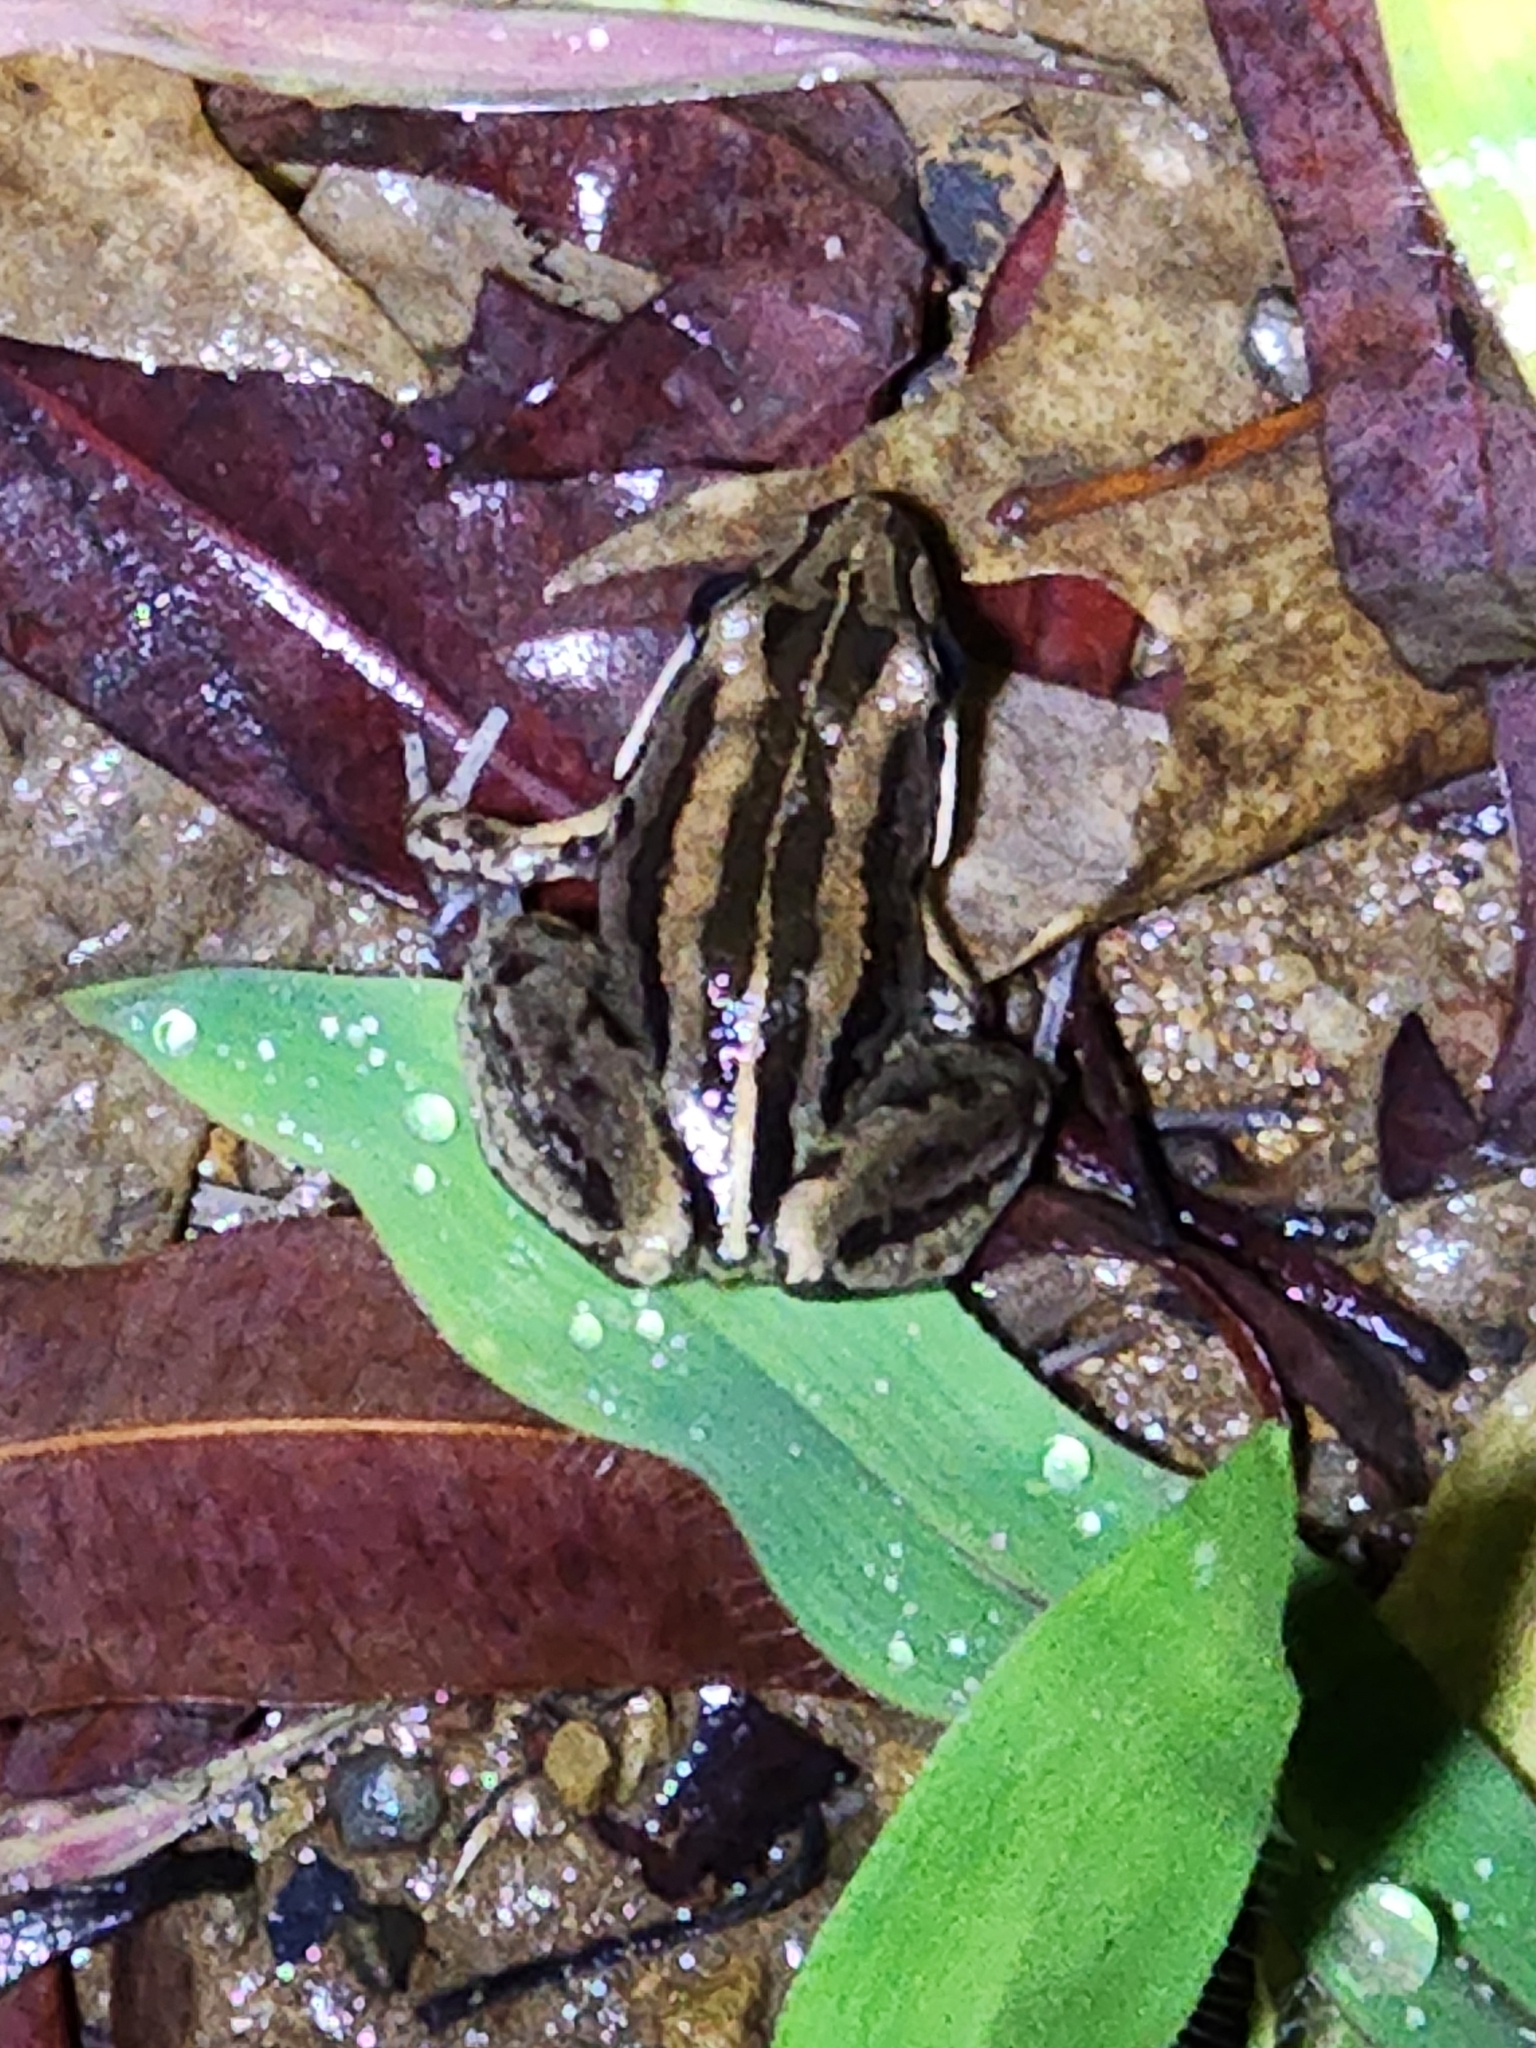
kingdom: Animalia
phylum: Chordata
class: Amphibia
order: Anura
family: Limnodynastidae
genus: Limnodynastes
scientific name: Limnodynastes peronii
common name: Brown frog
